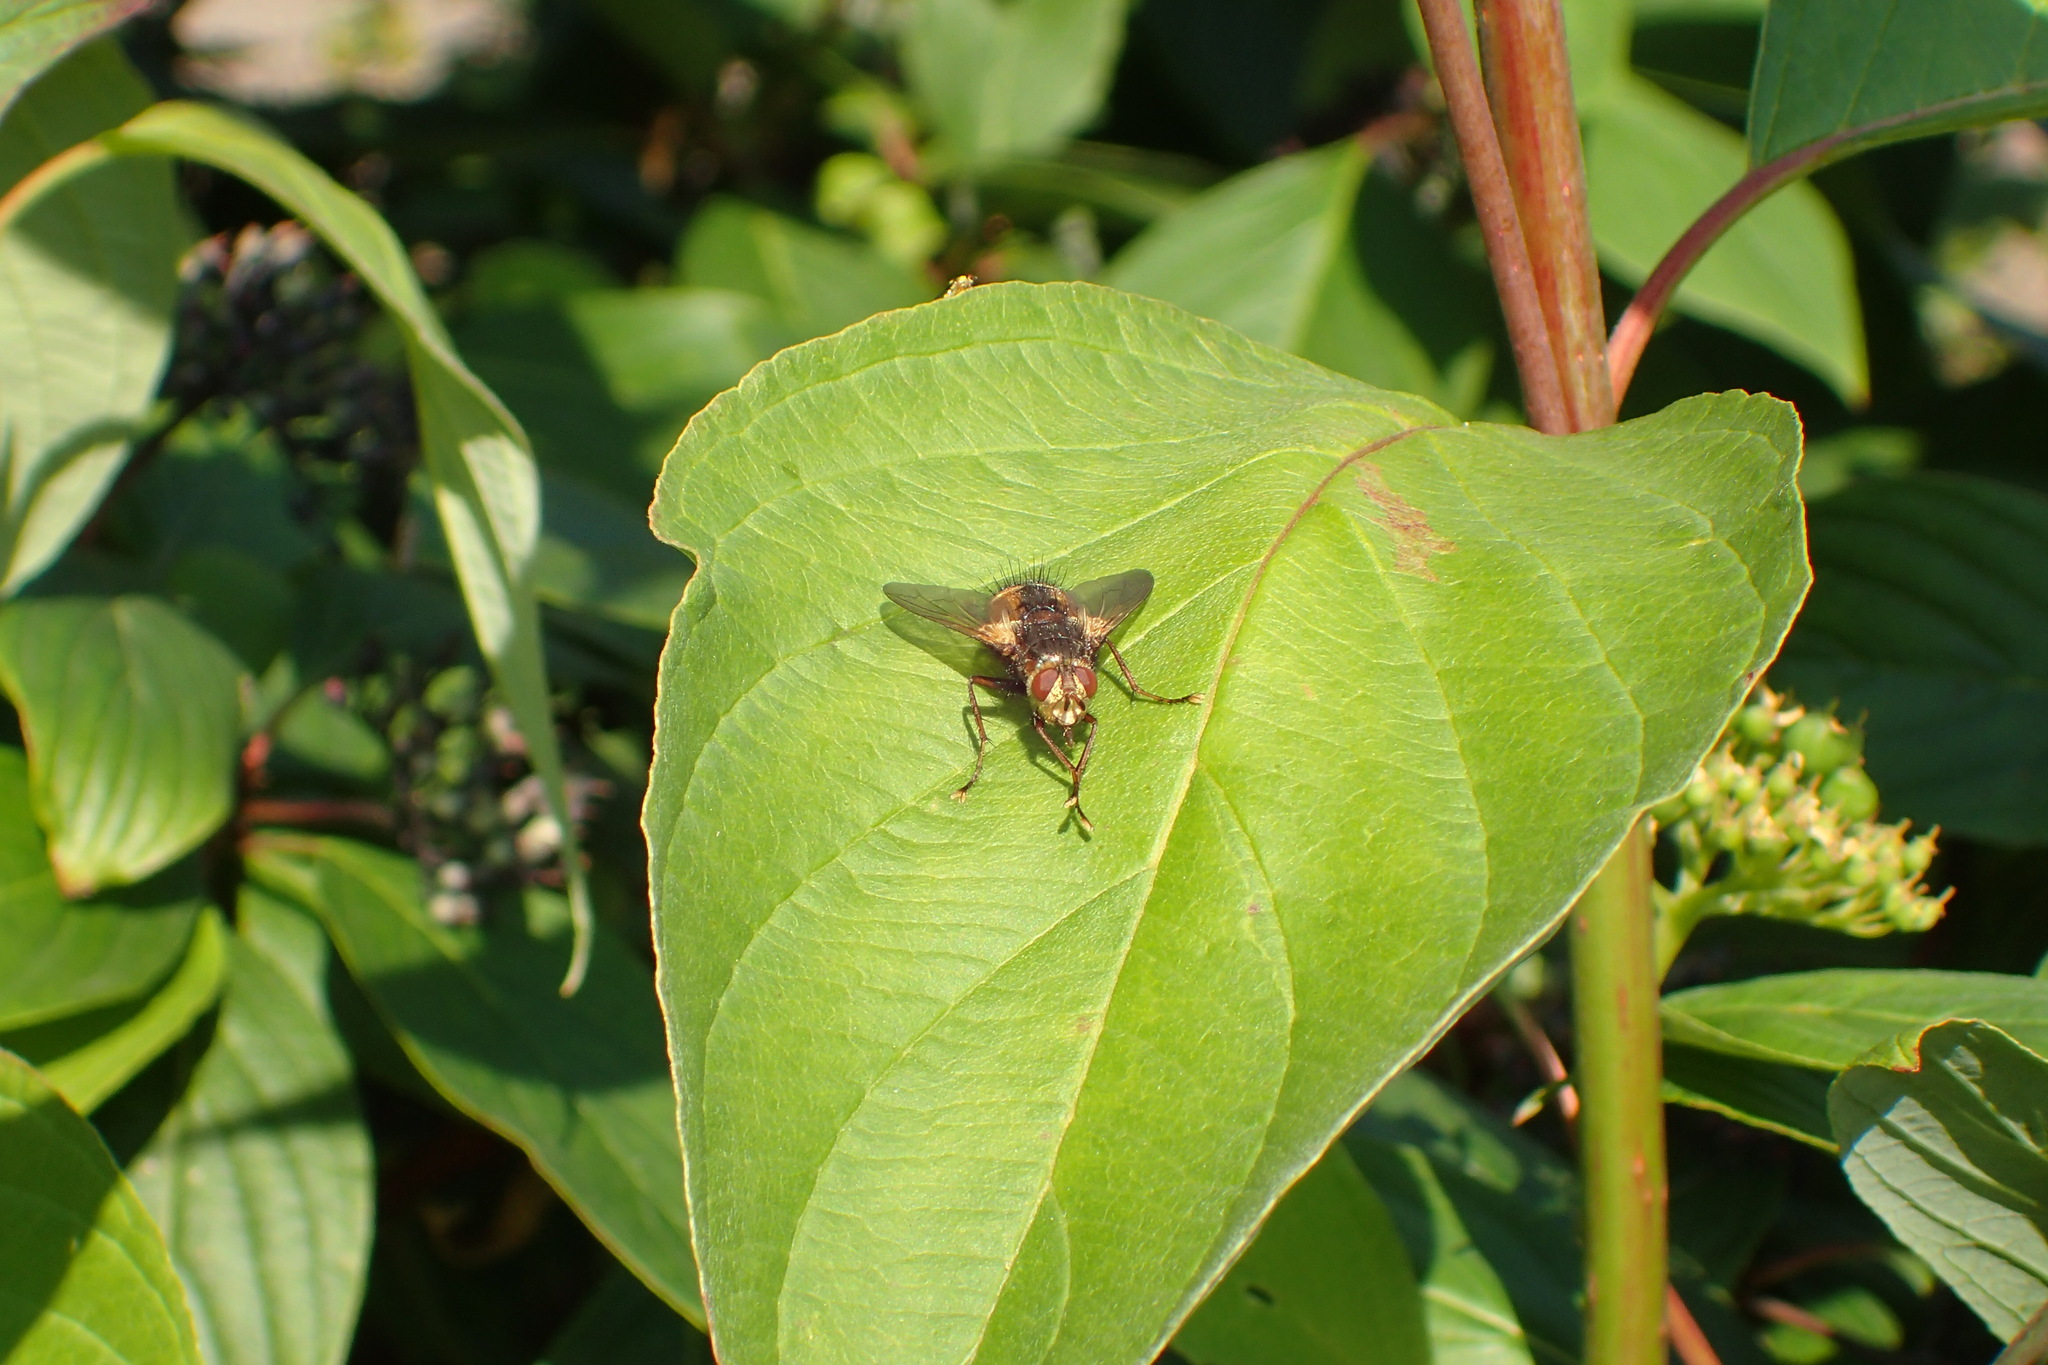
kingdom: Animalia
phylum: Arthropoda
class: Insecta
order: Diptera
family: Tachinidae
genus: Tachina
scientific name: Tachina fera
